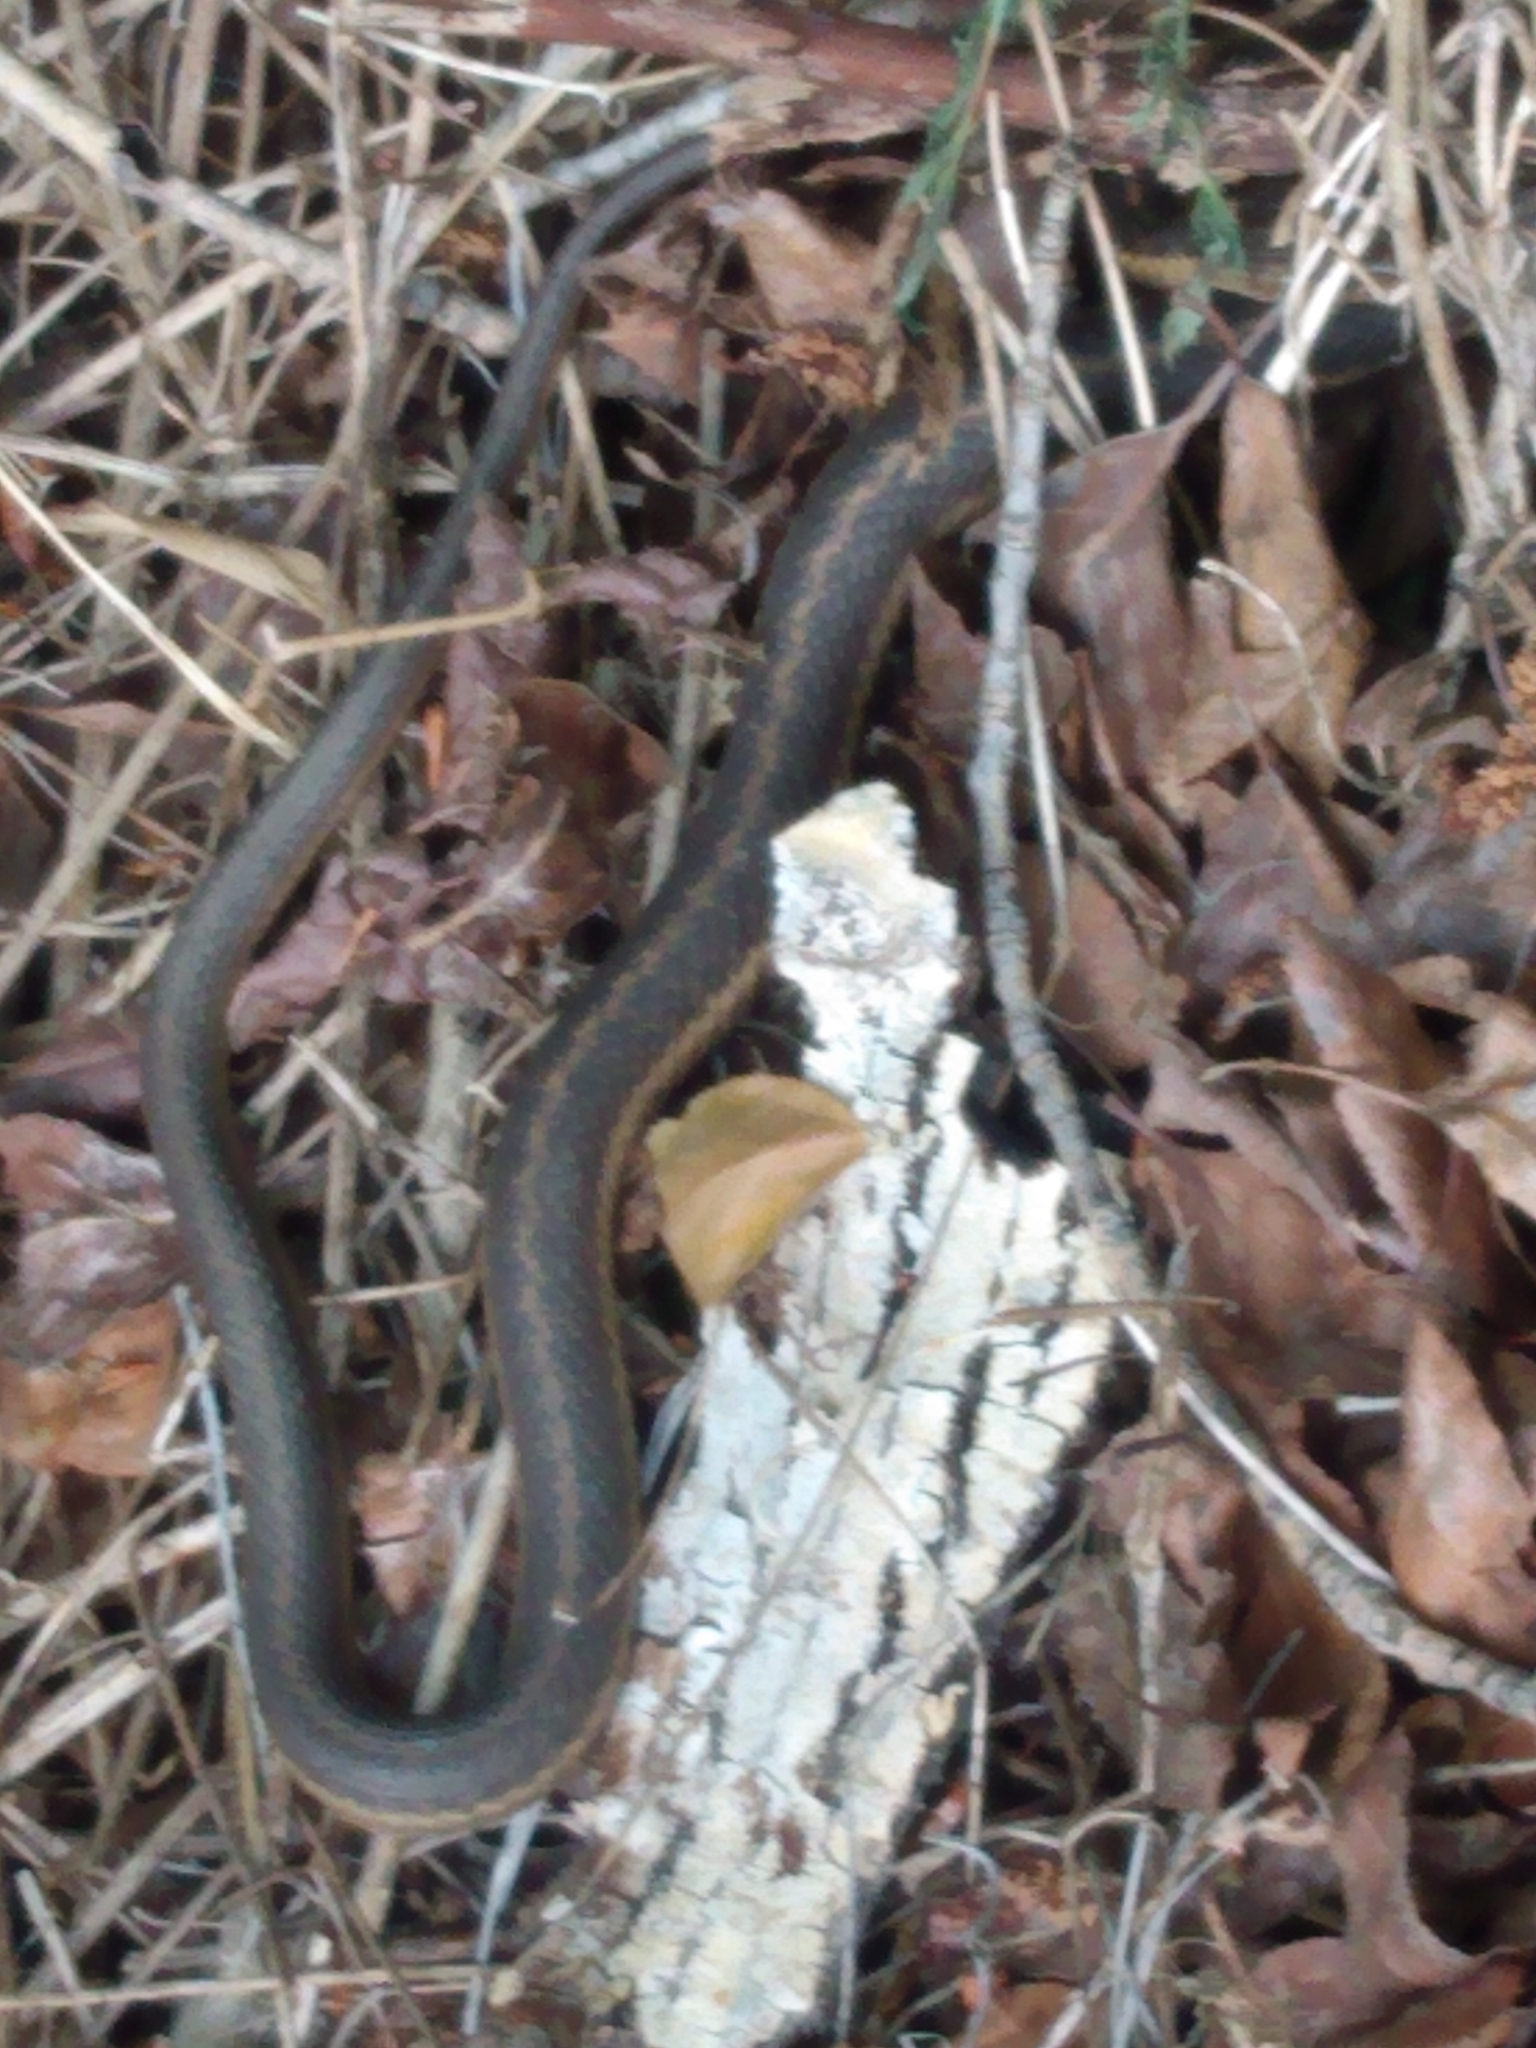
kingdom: Animalia
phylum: Chordata
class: Squamata
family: Colubridae
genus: Thamnophis
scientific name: Thamnophis elegans
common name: Western terrestrial garter snake
